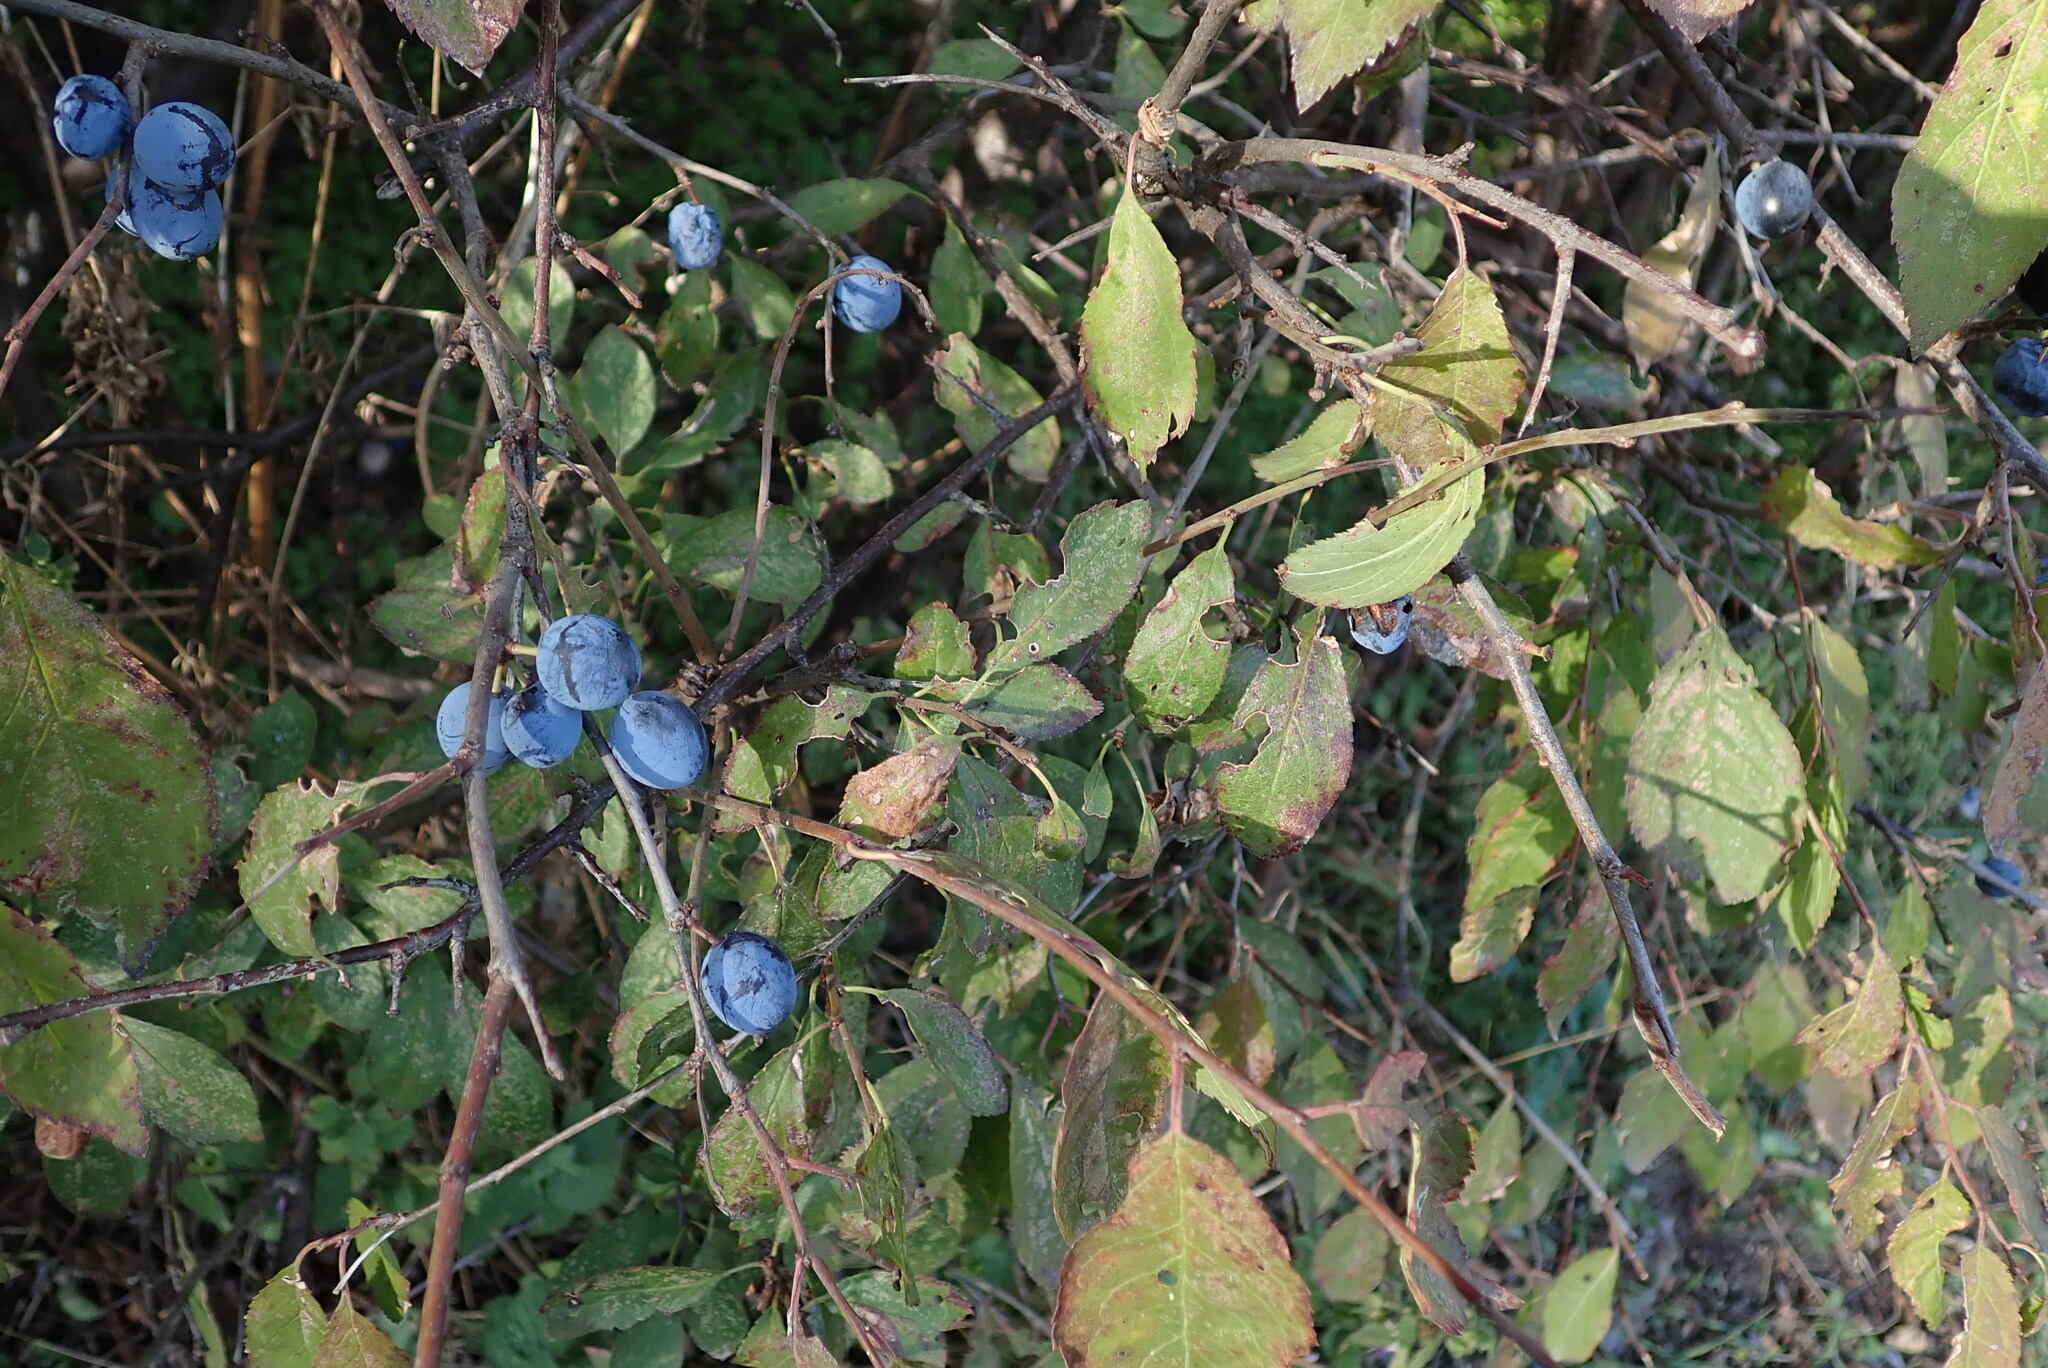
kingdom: Plantae
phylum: Tracheophyta
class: Magnoliopsida
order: Rosales
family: Rosaceae
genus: Prunus
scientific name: Prunus spinosa
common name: Blackthorn
